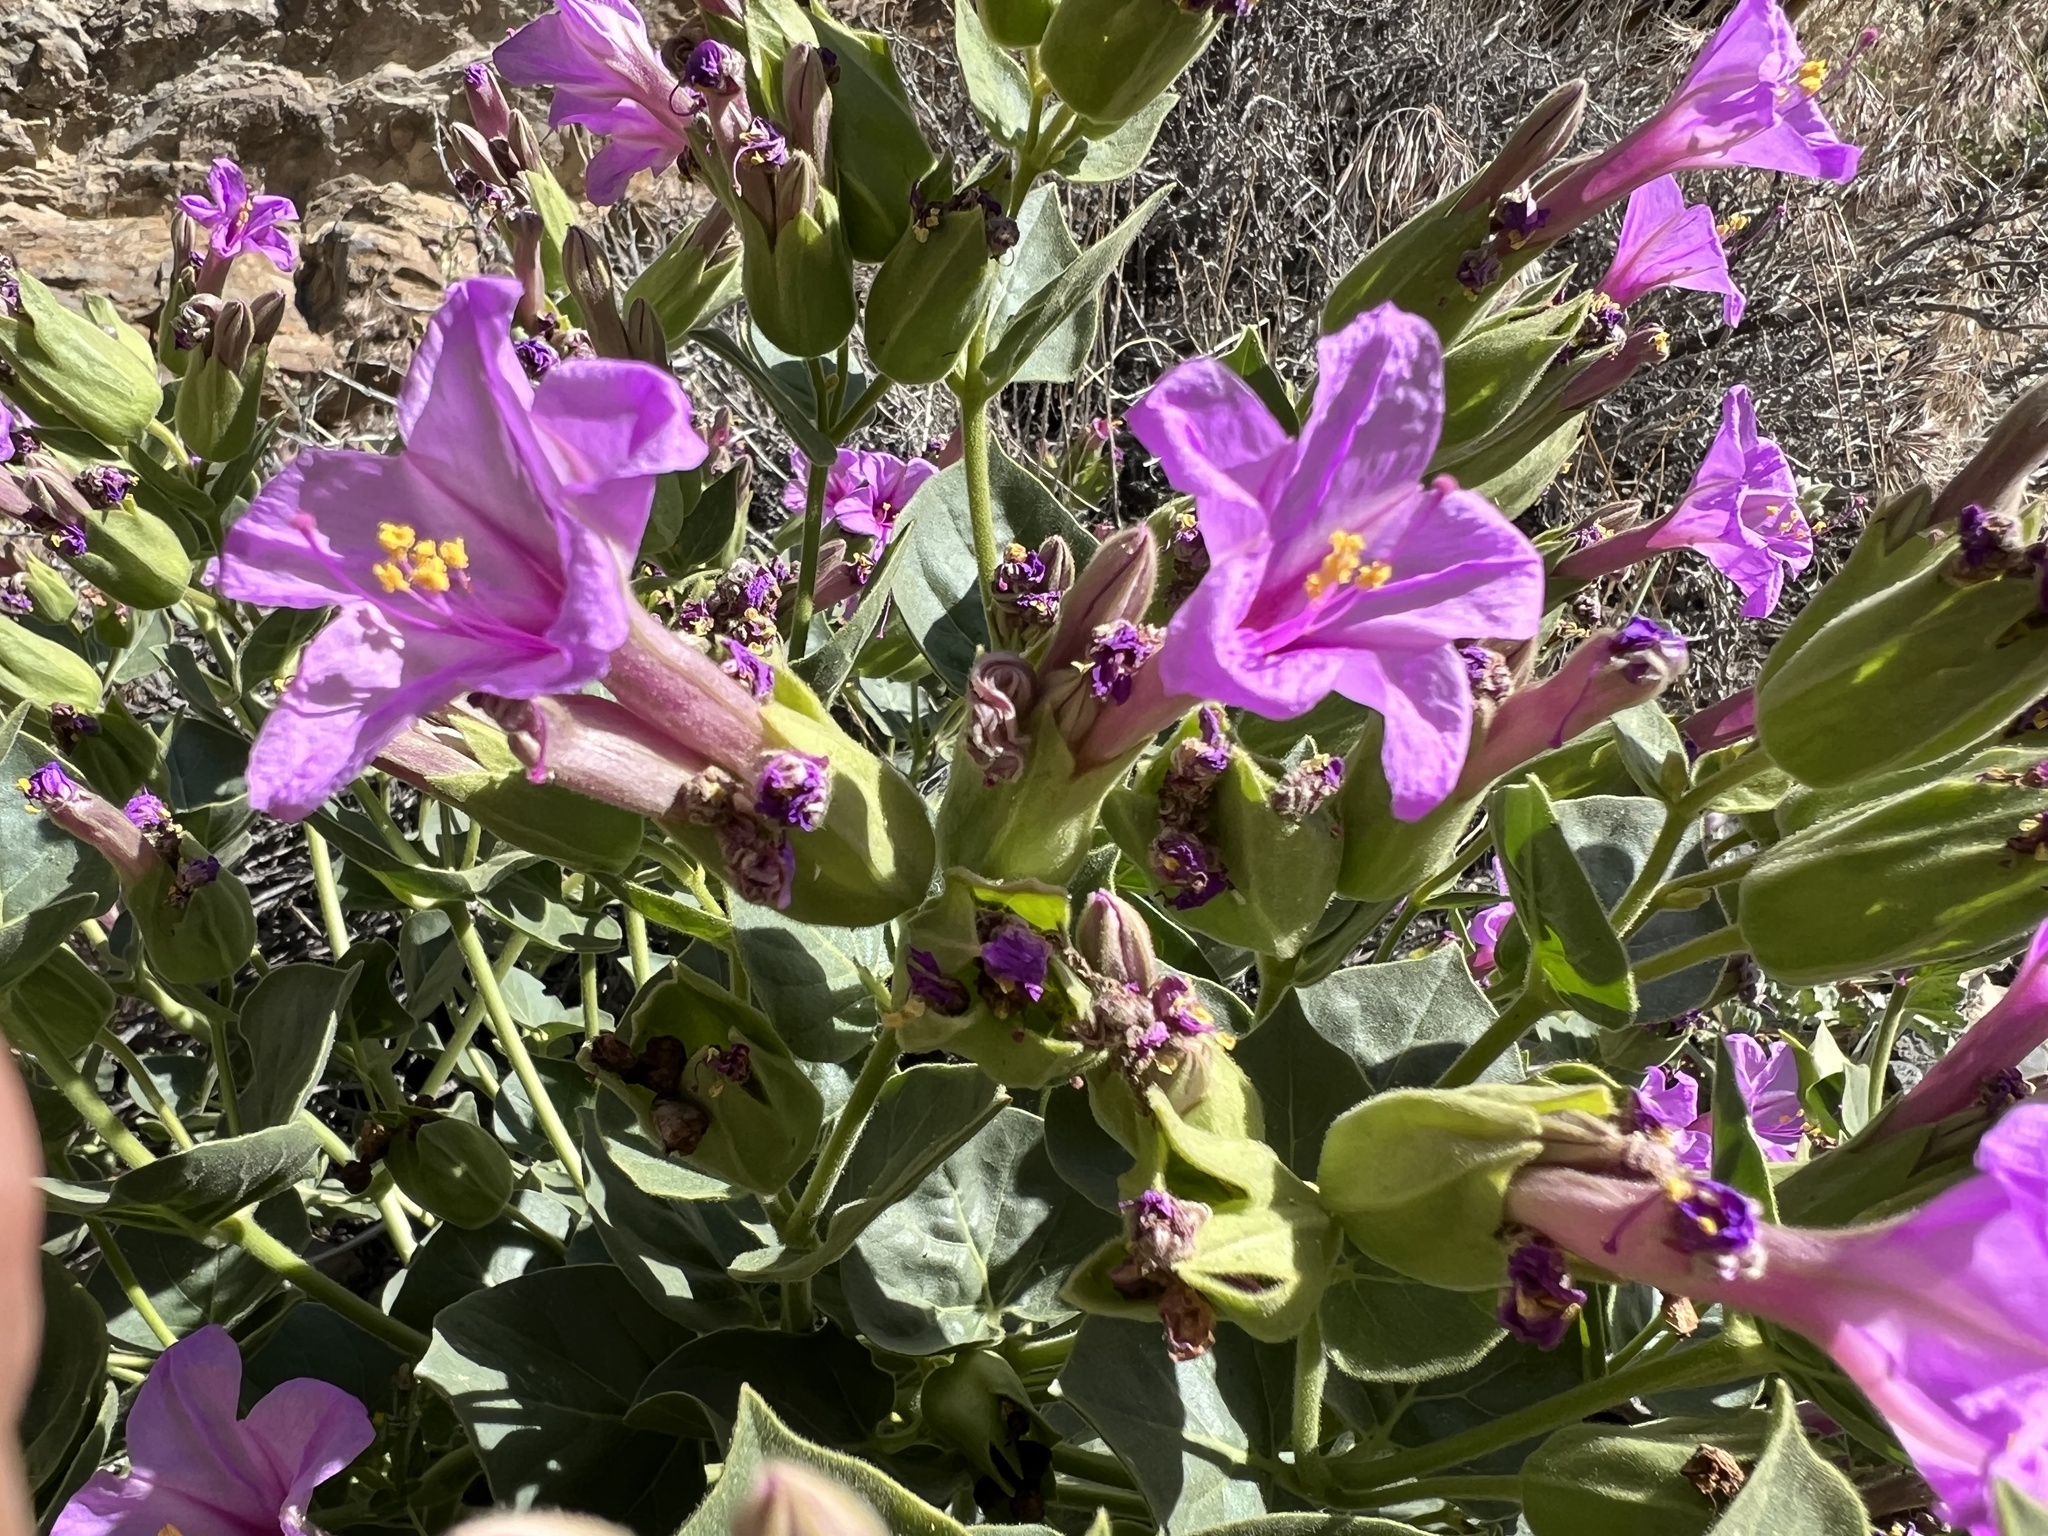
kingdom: Plantae
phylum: Tracheophyta
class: Magnoliopsida
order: Caryophyllales
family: Nyctaginaceae
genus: Mirabilis
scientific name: Mirabilis multiflora
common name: Froebel's four-o'clock
